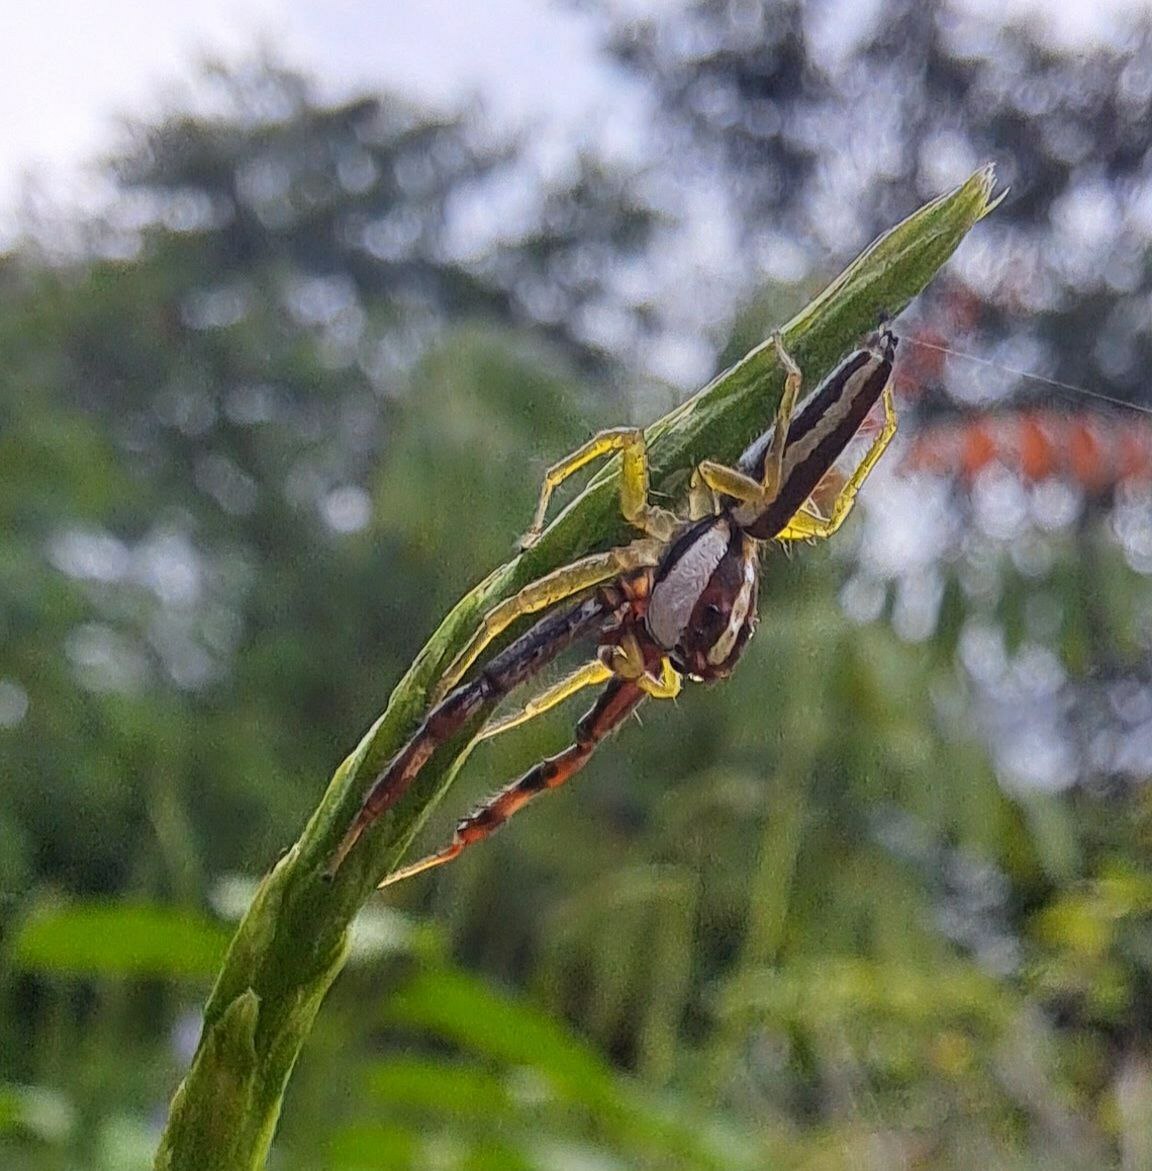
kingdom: Animalia
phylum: Arthropoda
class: Arachnida
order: Araneae
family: Salticidae
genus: Epocilla
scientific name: Epocilla calcarata
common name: Jumping spider
